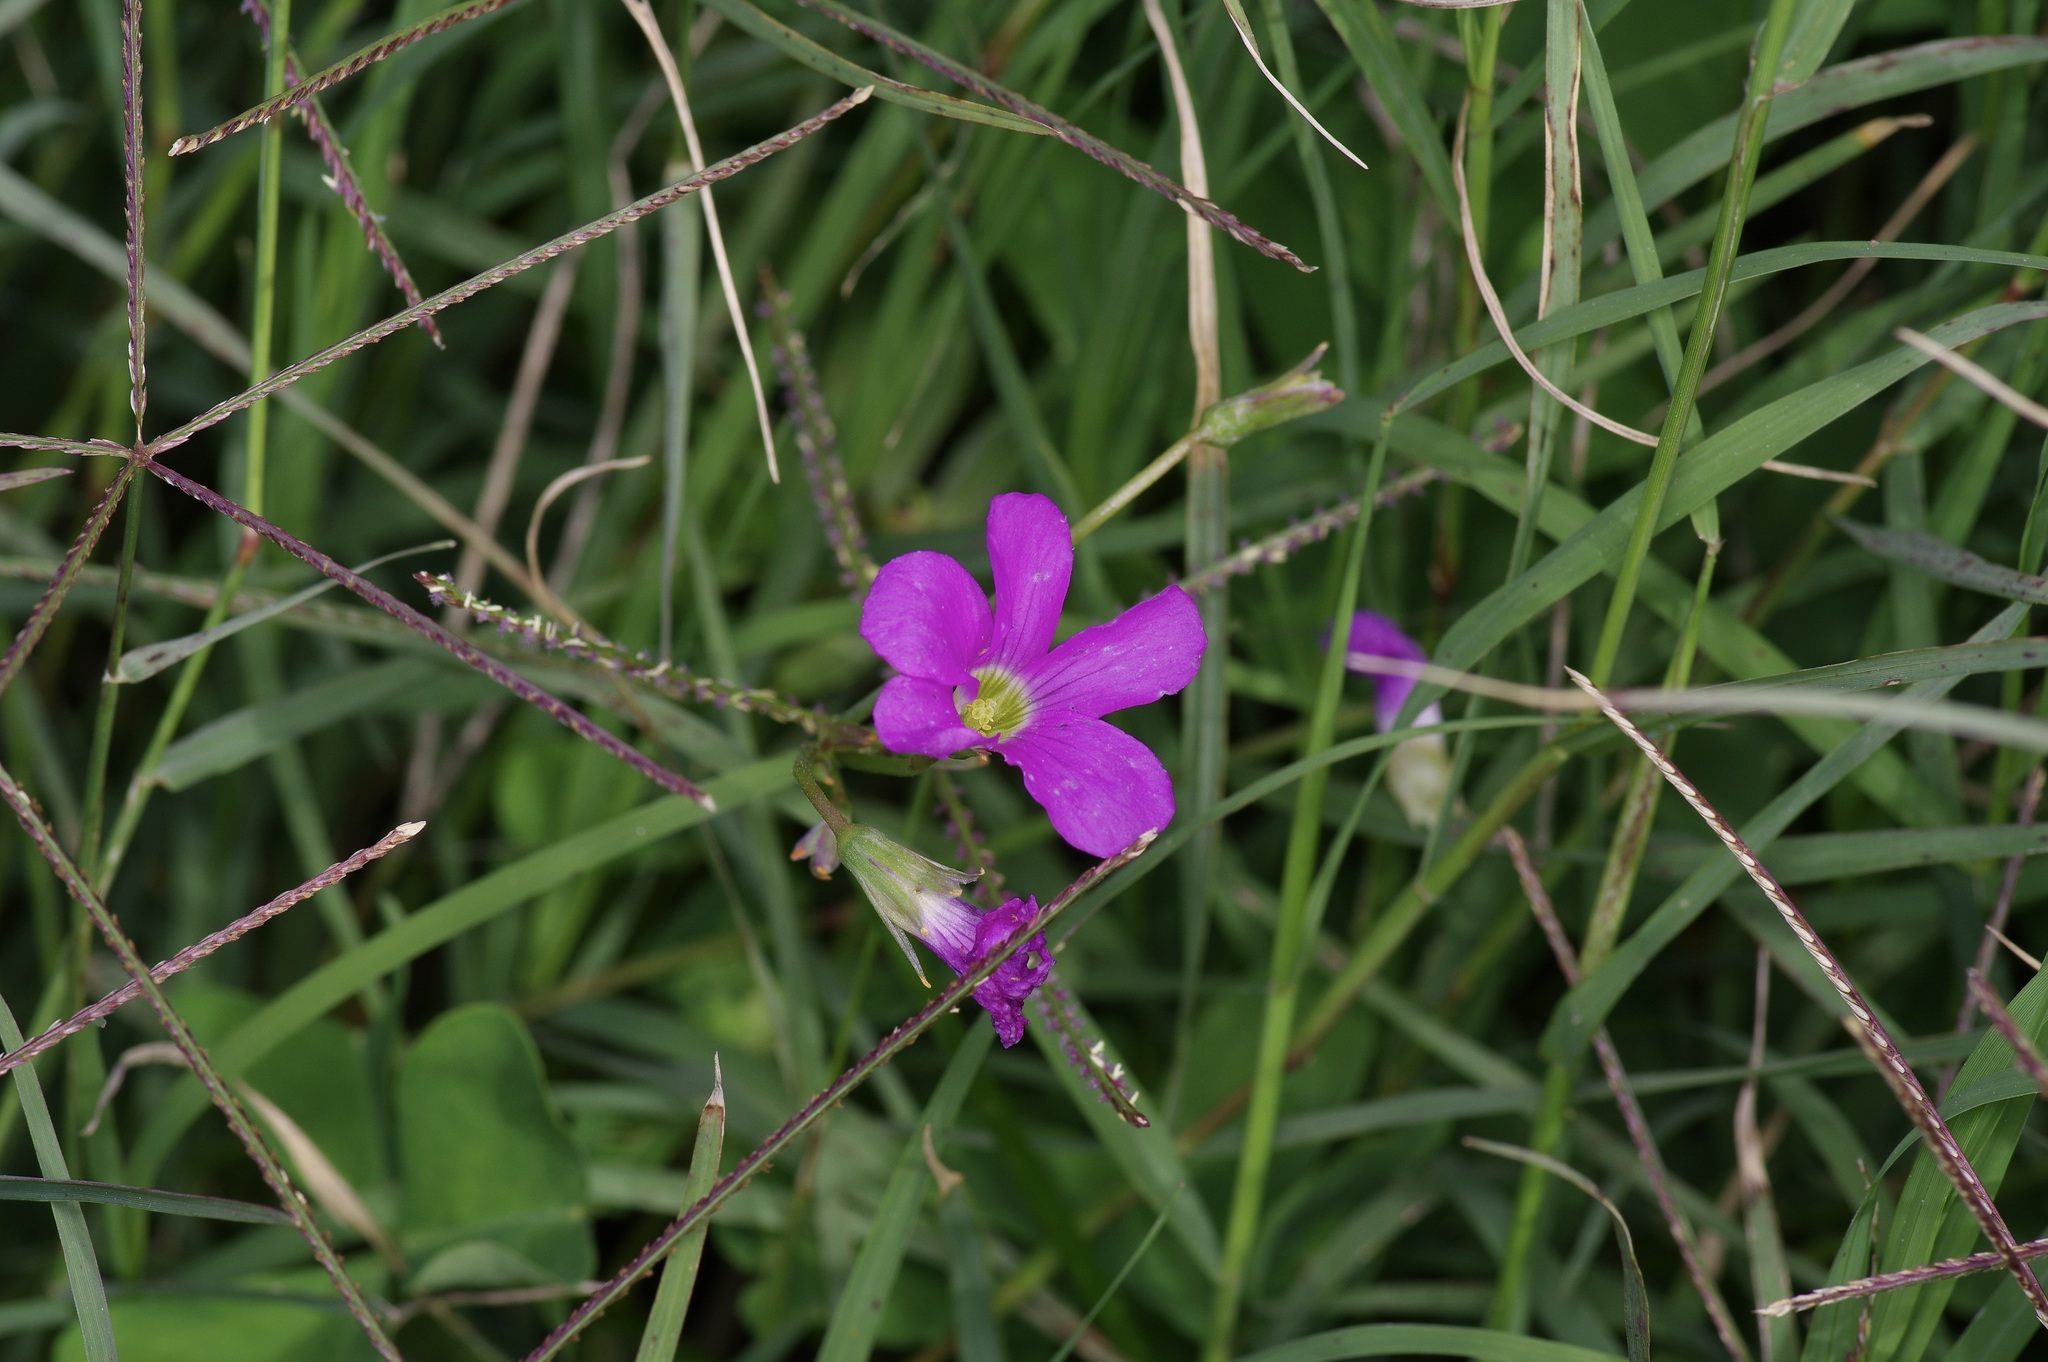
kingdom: Plantae
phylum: Tracheophyta
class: Magnoliopsida
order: Oxalidales
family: Oxalidaceae
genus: Oxalis
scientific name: Oxalis drummondii
